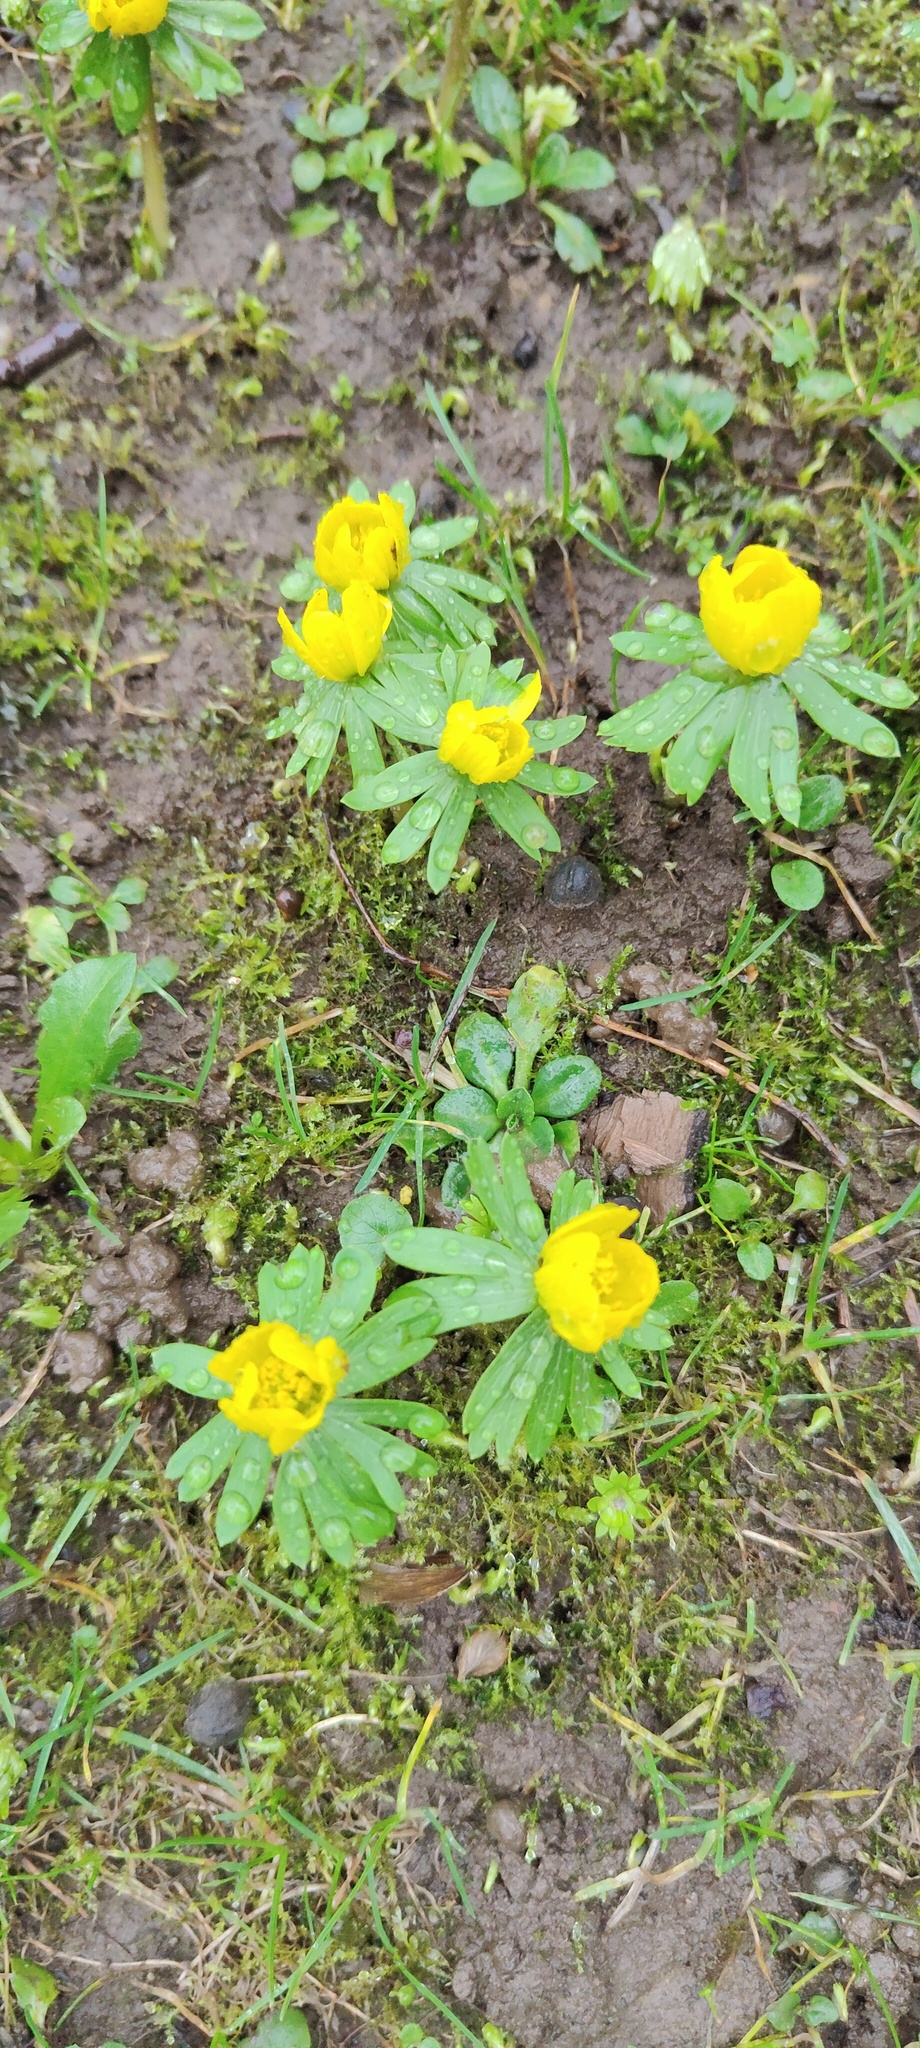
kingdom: Plantae
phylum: Tracheophyta
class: Magnoliopsida
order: Ranunculales
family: Ranunculaceae
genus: Eranthis
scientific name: Eranthis hyemalis
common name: Winter aconite
